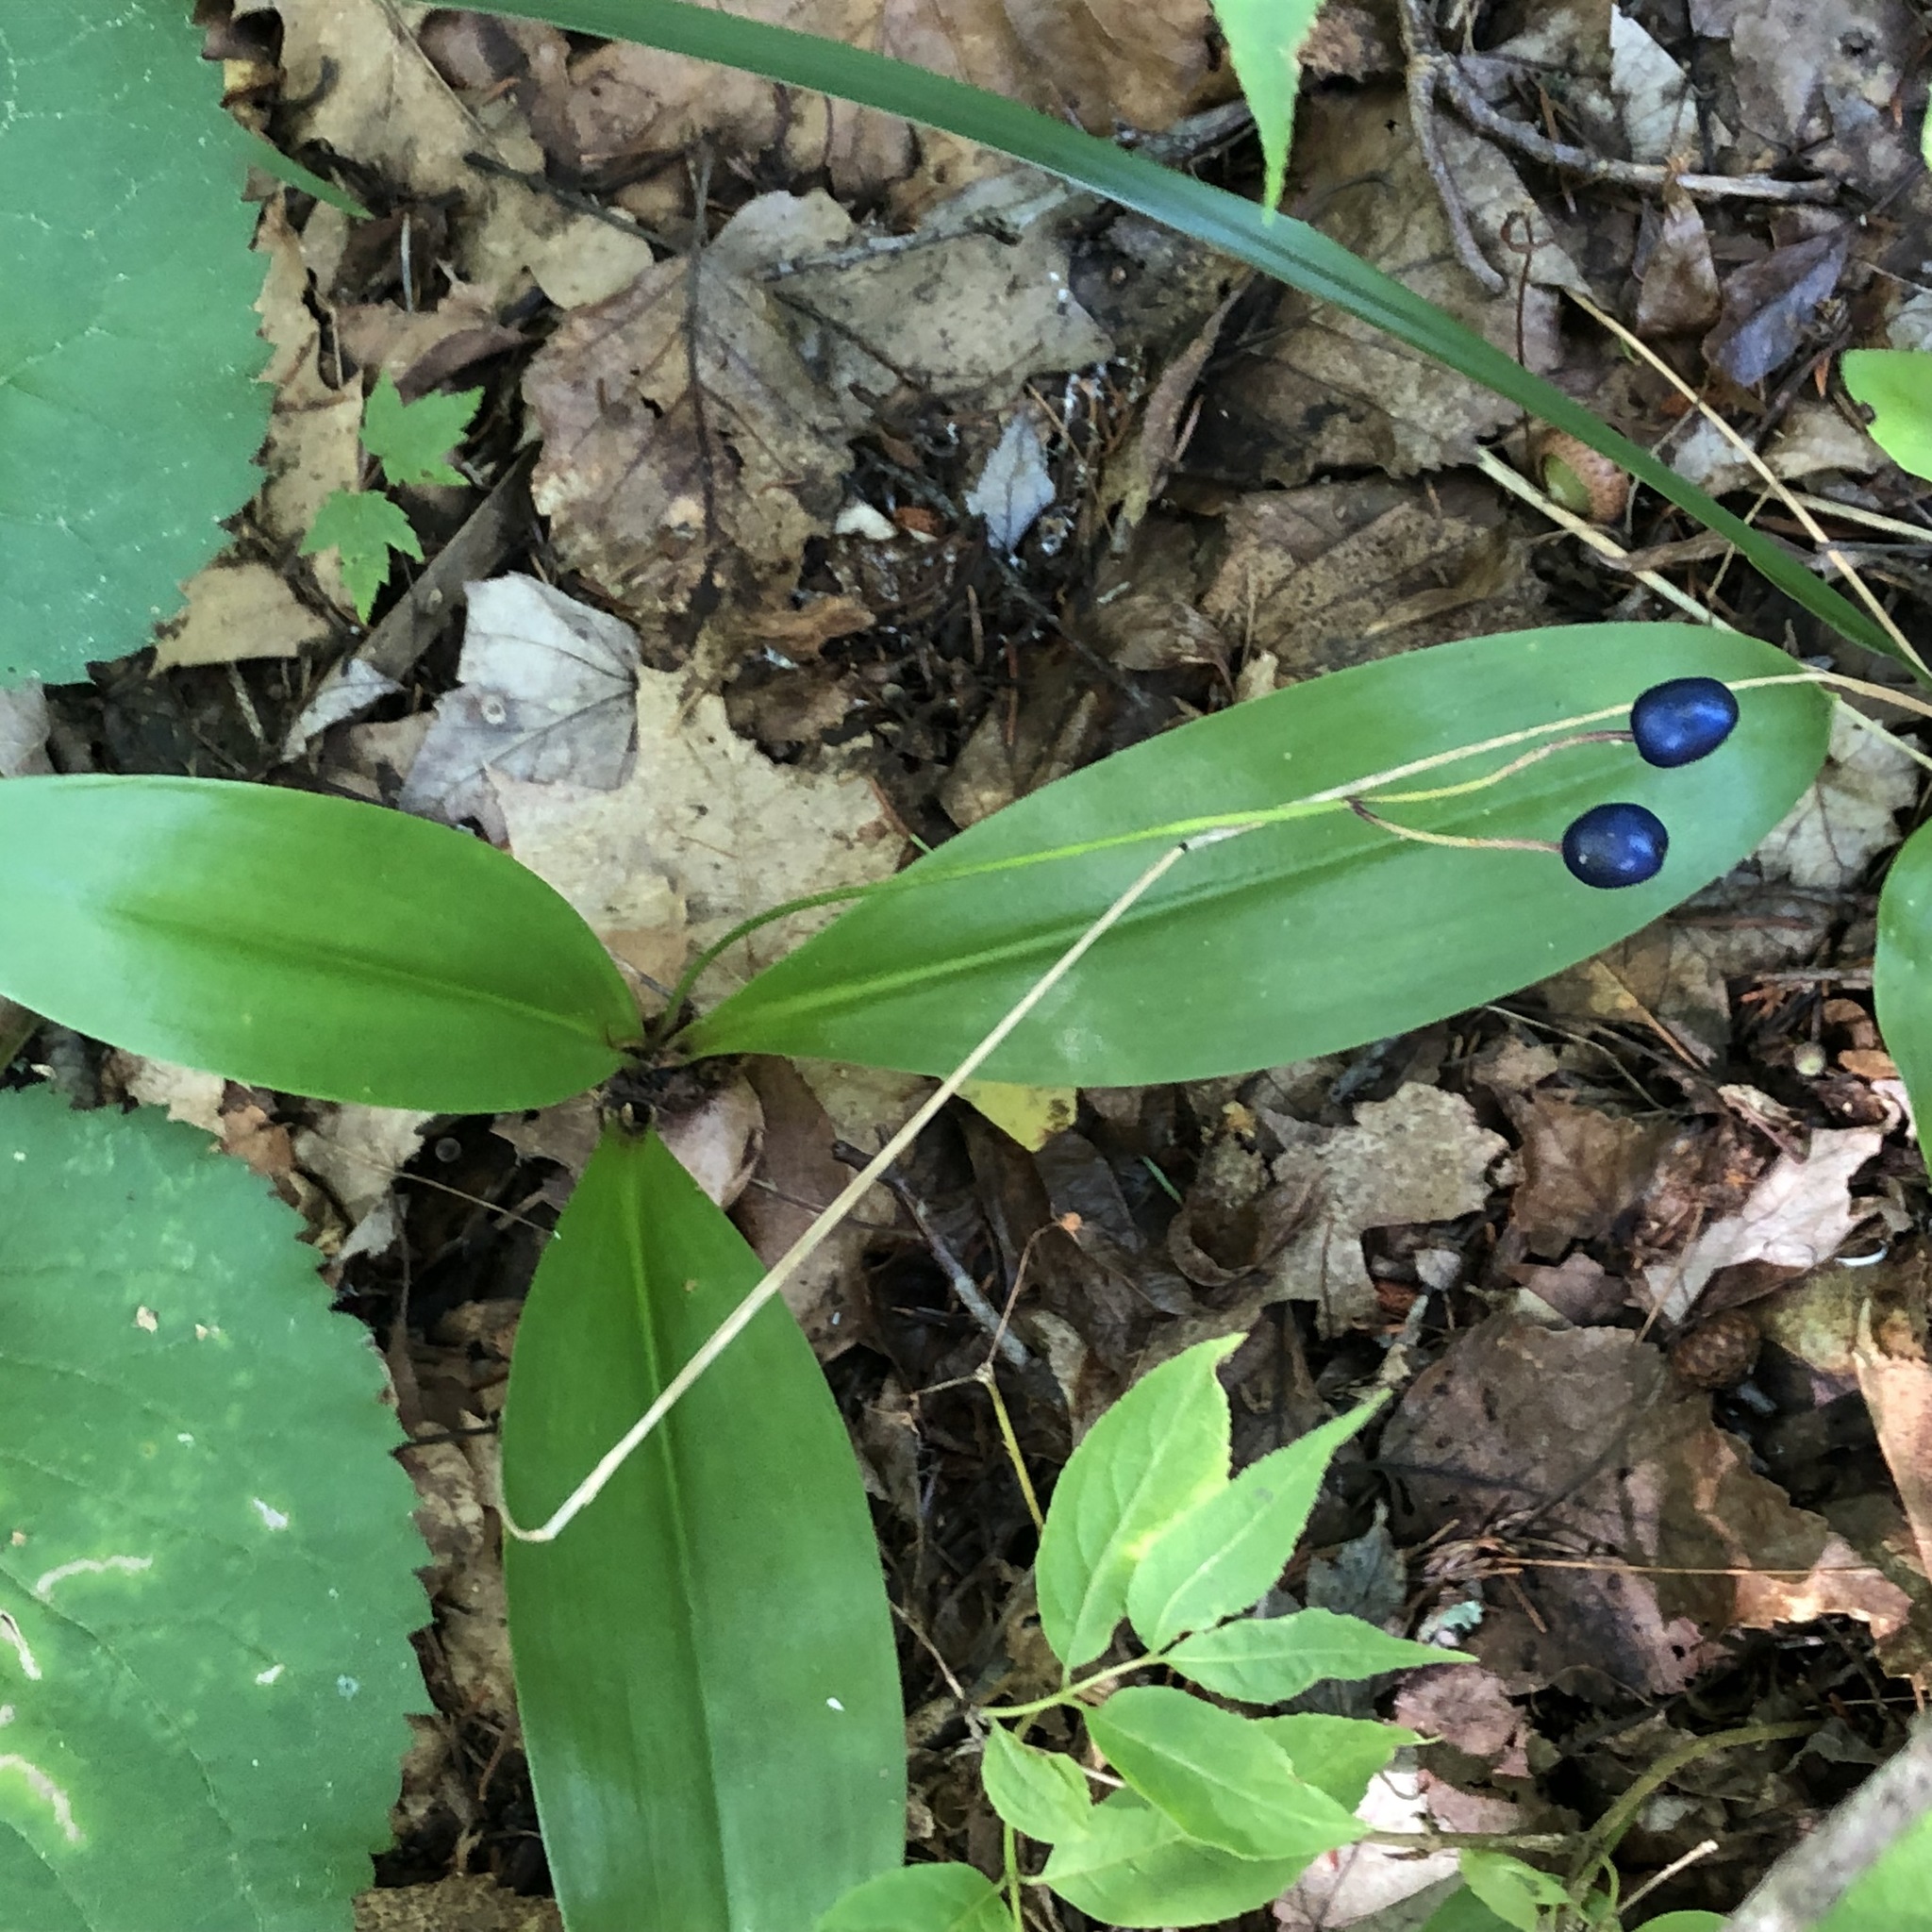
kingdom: Plantae
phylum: Tracheophyta
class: Liliopsida
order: Liliales
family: Liliaceae
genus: Clintonia
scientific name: Clintonia borealis
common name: Yellow clintonia
